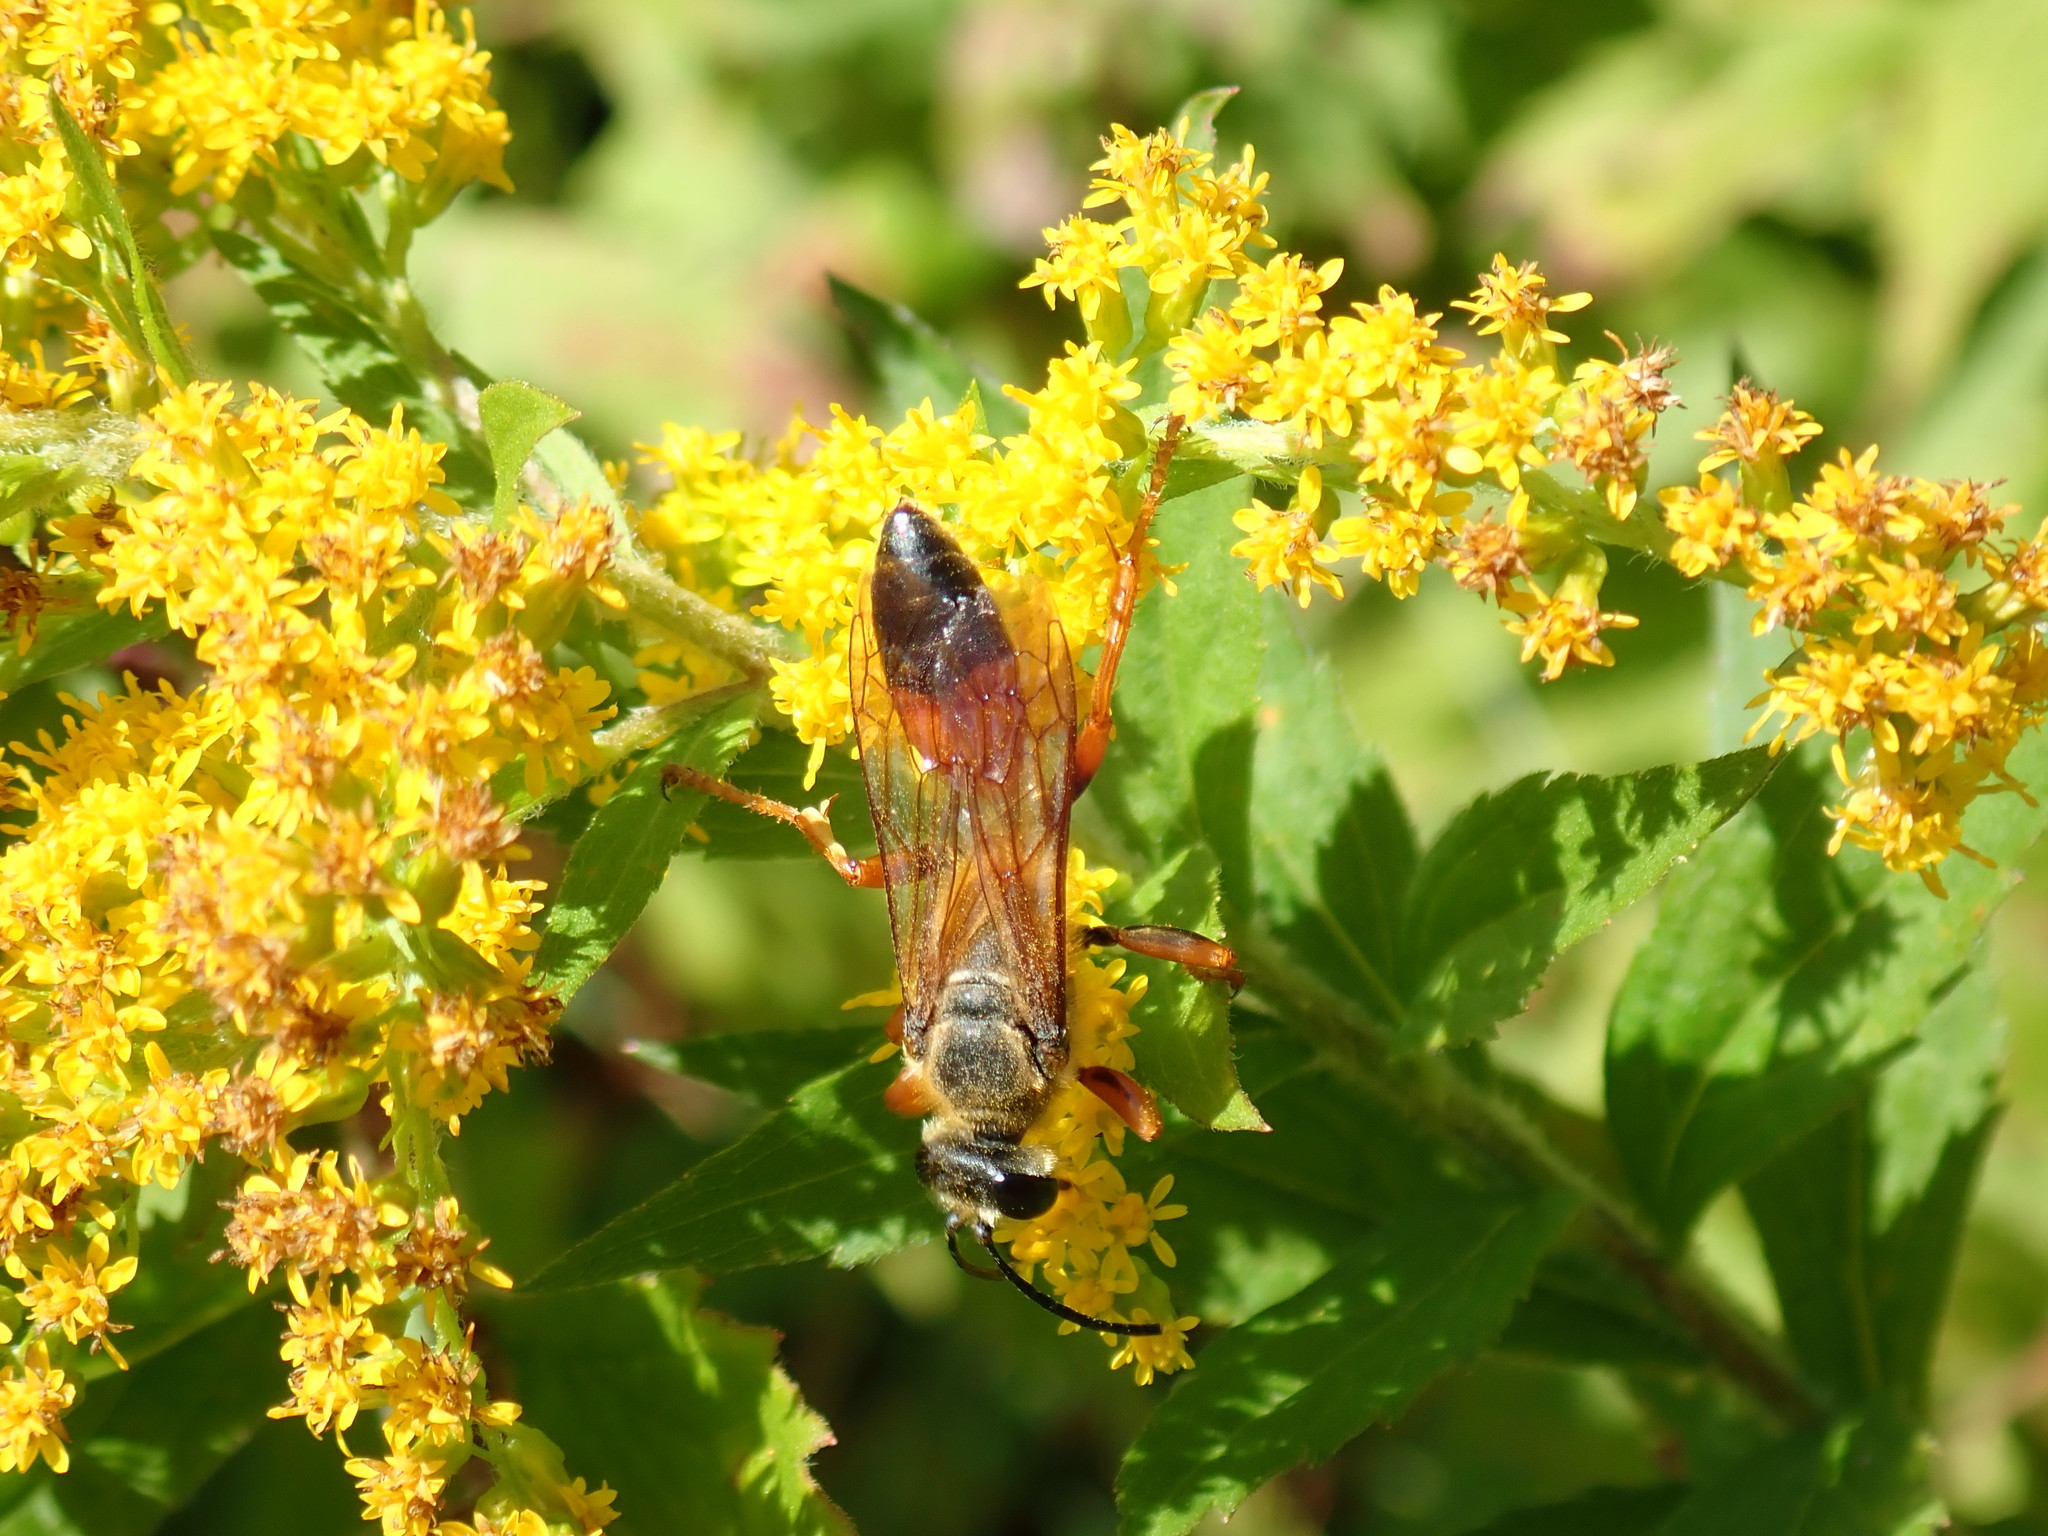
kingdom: Animalia
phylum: Arthropoda
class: Insecta
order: Hymenoptera
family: Sphecidae
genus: Sphex
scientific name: Sphex ichneumoneus
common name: Great golden digger wasp
